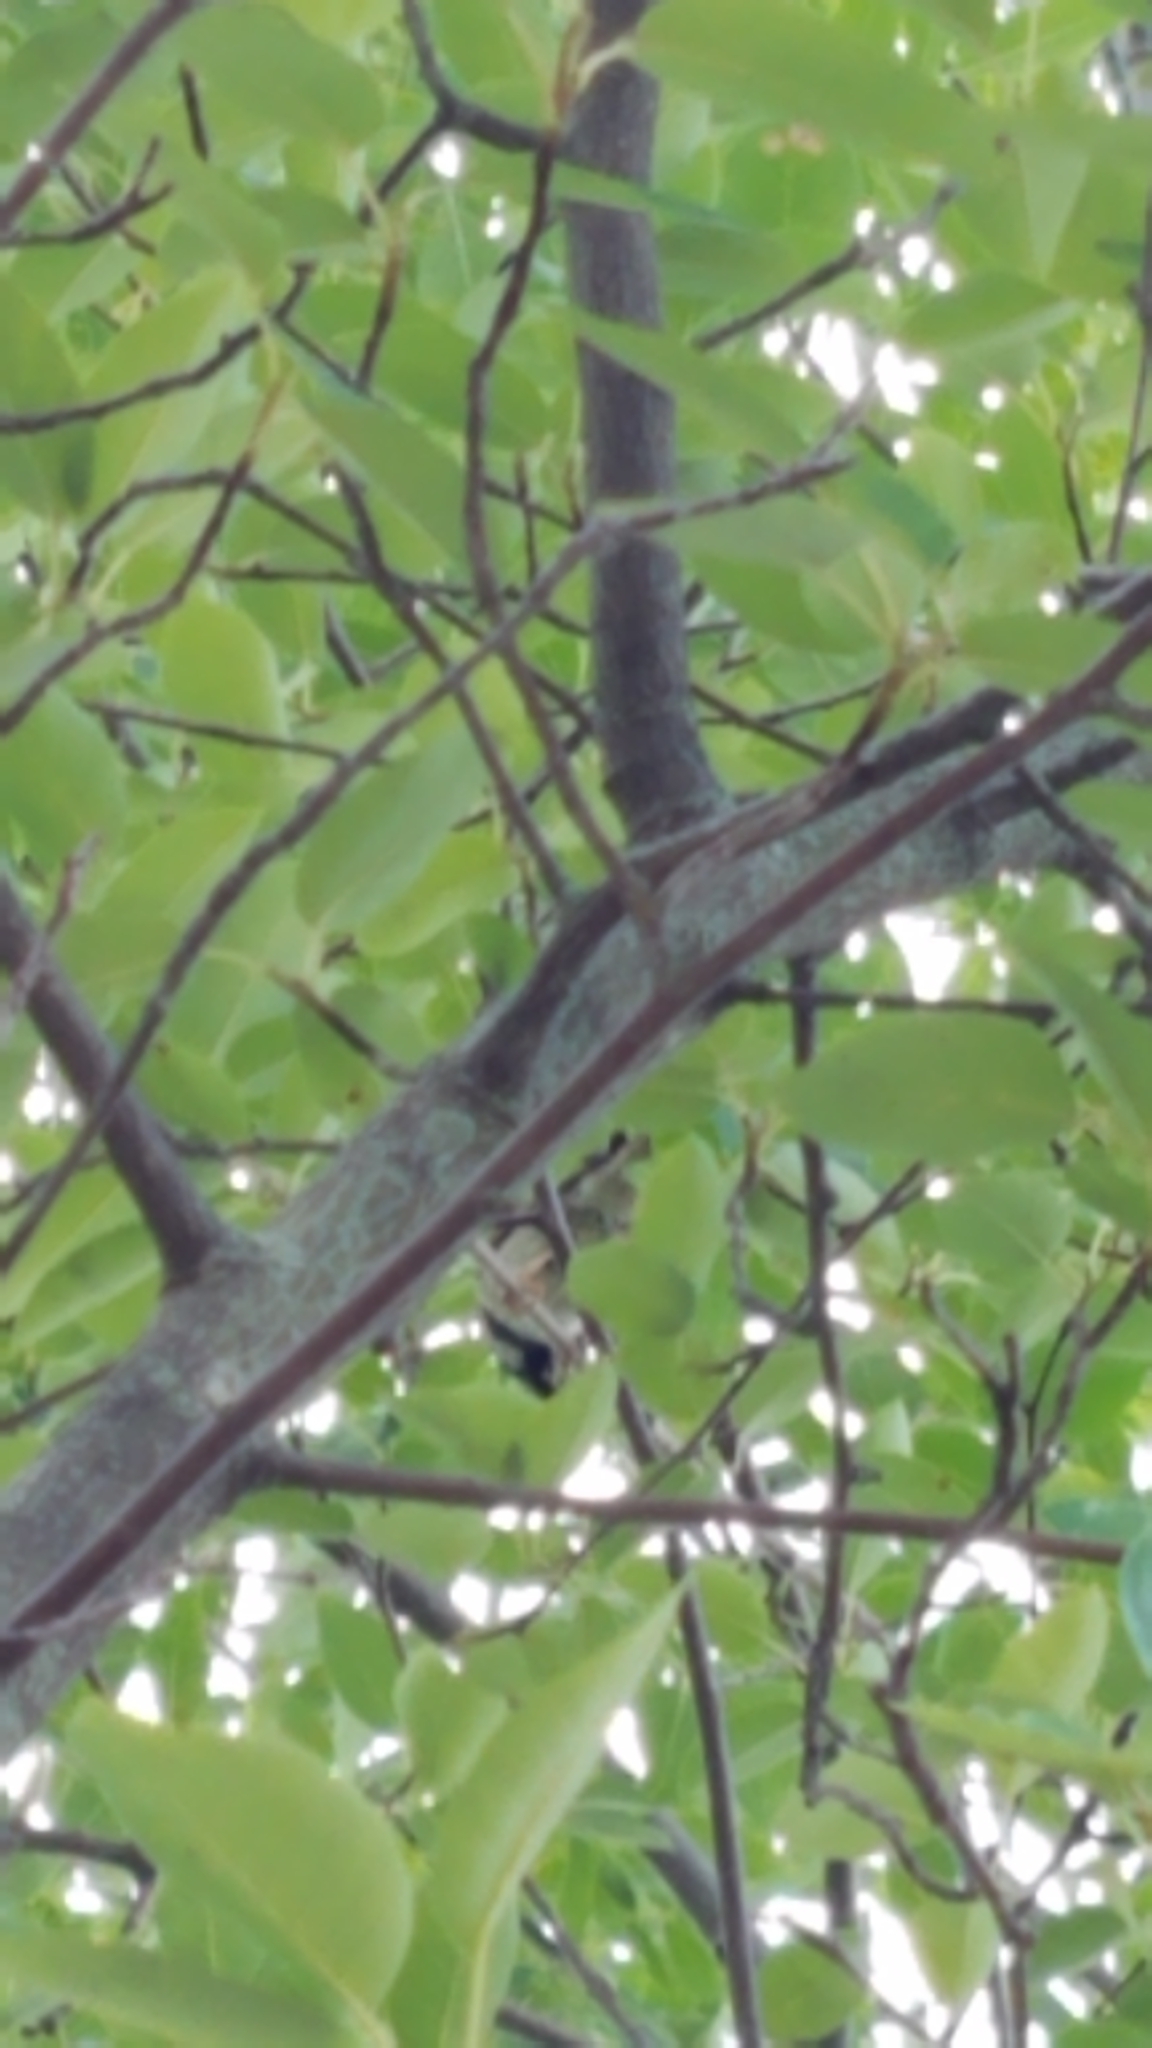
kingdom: Animalia
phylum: Chordata
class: Aves
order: Passeriformes
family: Passeridae
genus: Passer
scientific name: Passer domesticus
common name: House sparrow
